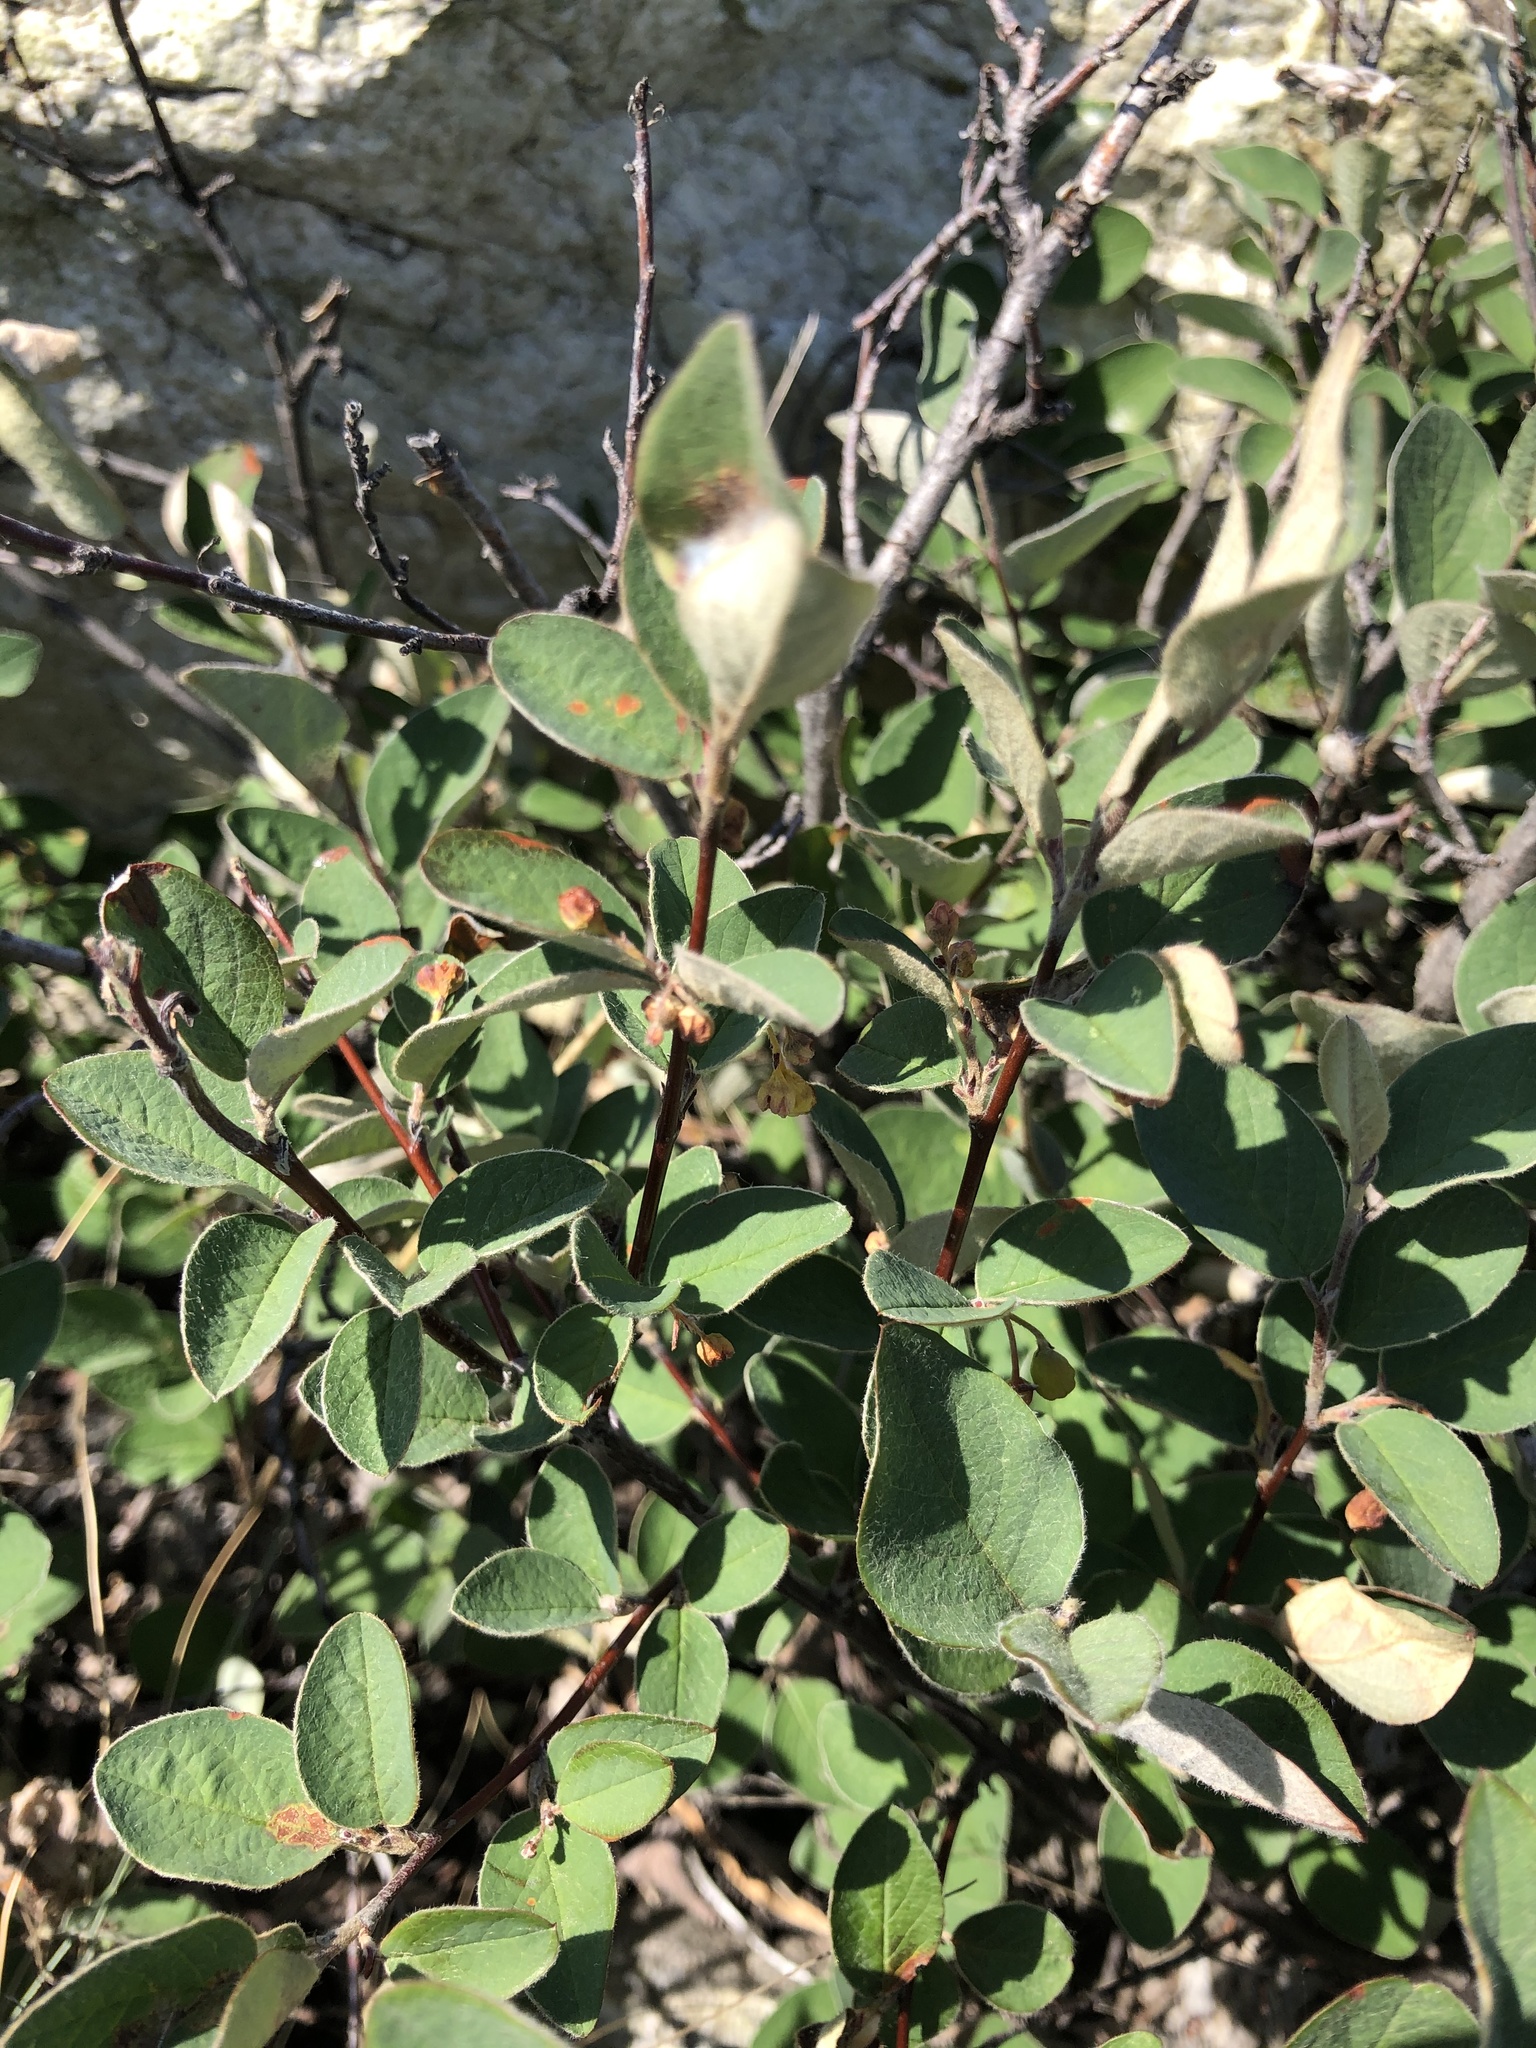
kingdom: Plantae
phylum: Tracheophyta
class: Magnoliopsida
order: Rosales
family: Rosaceae
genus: Cotoneaster
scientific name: Cotoneaster melanocarpus
